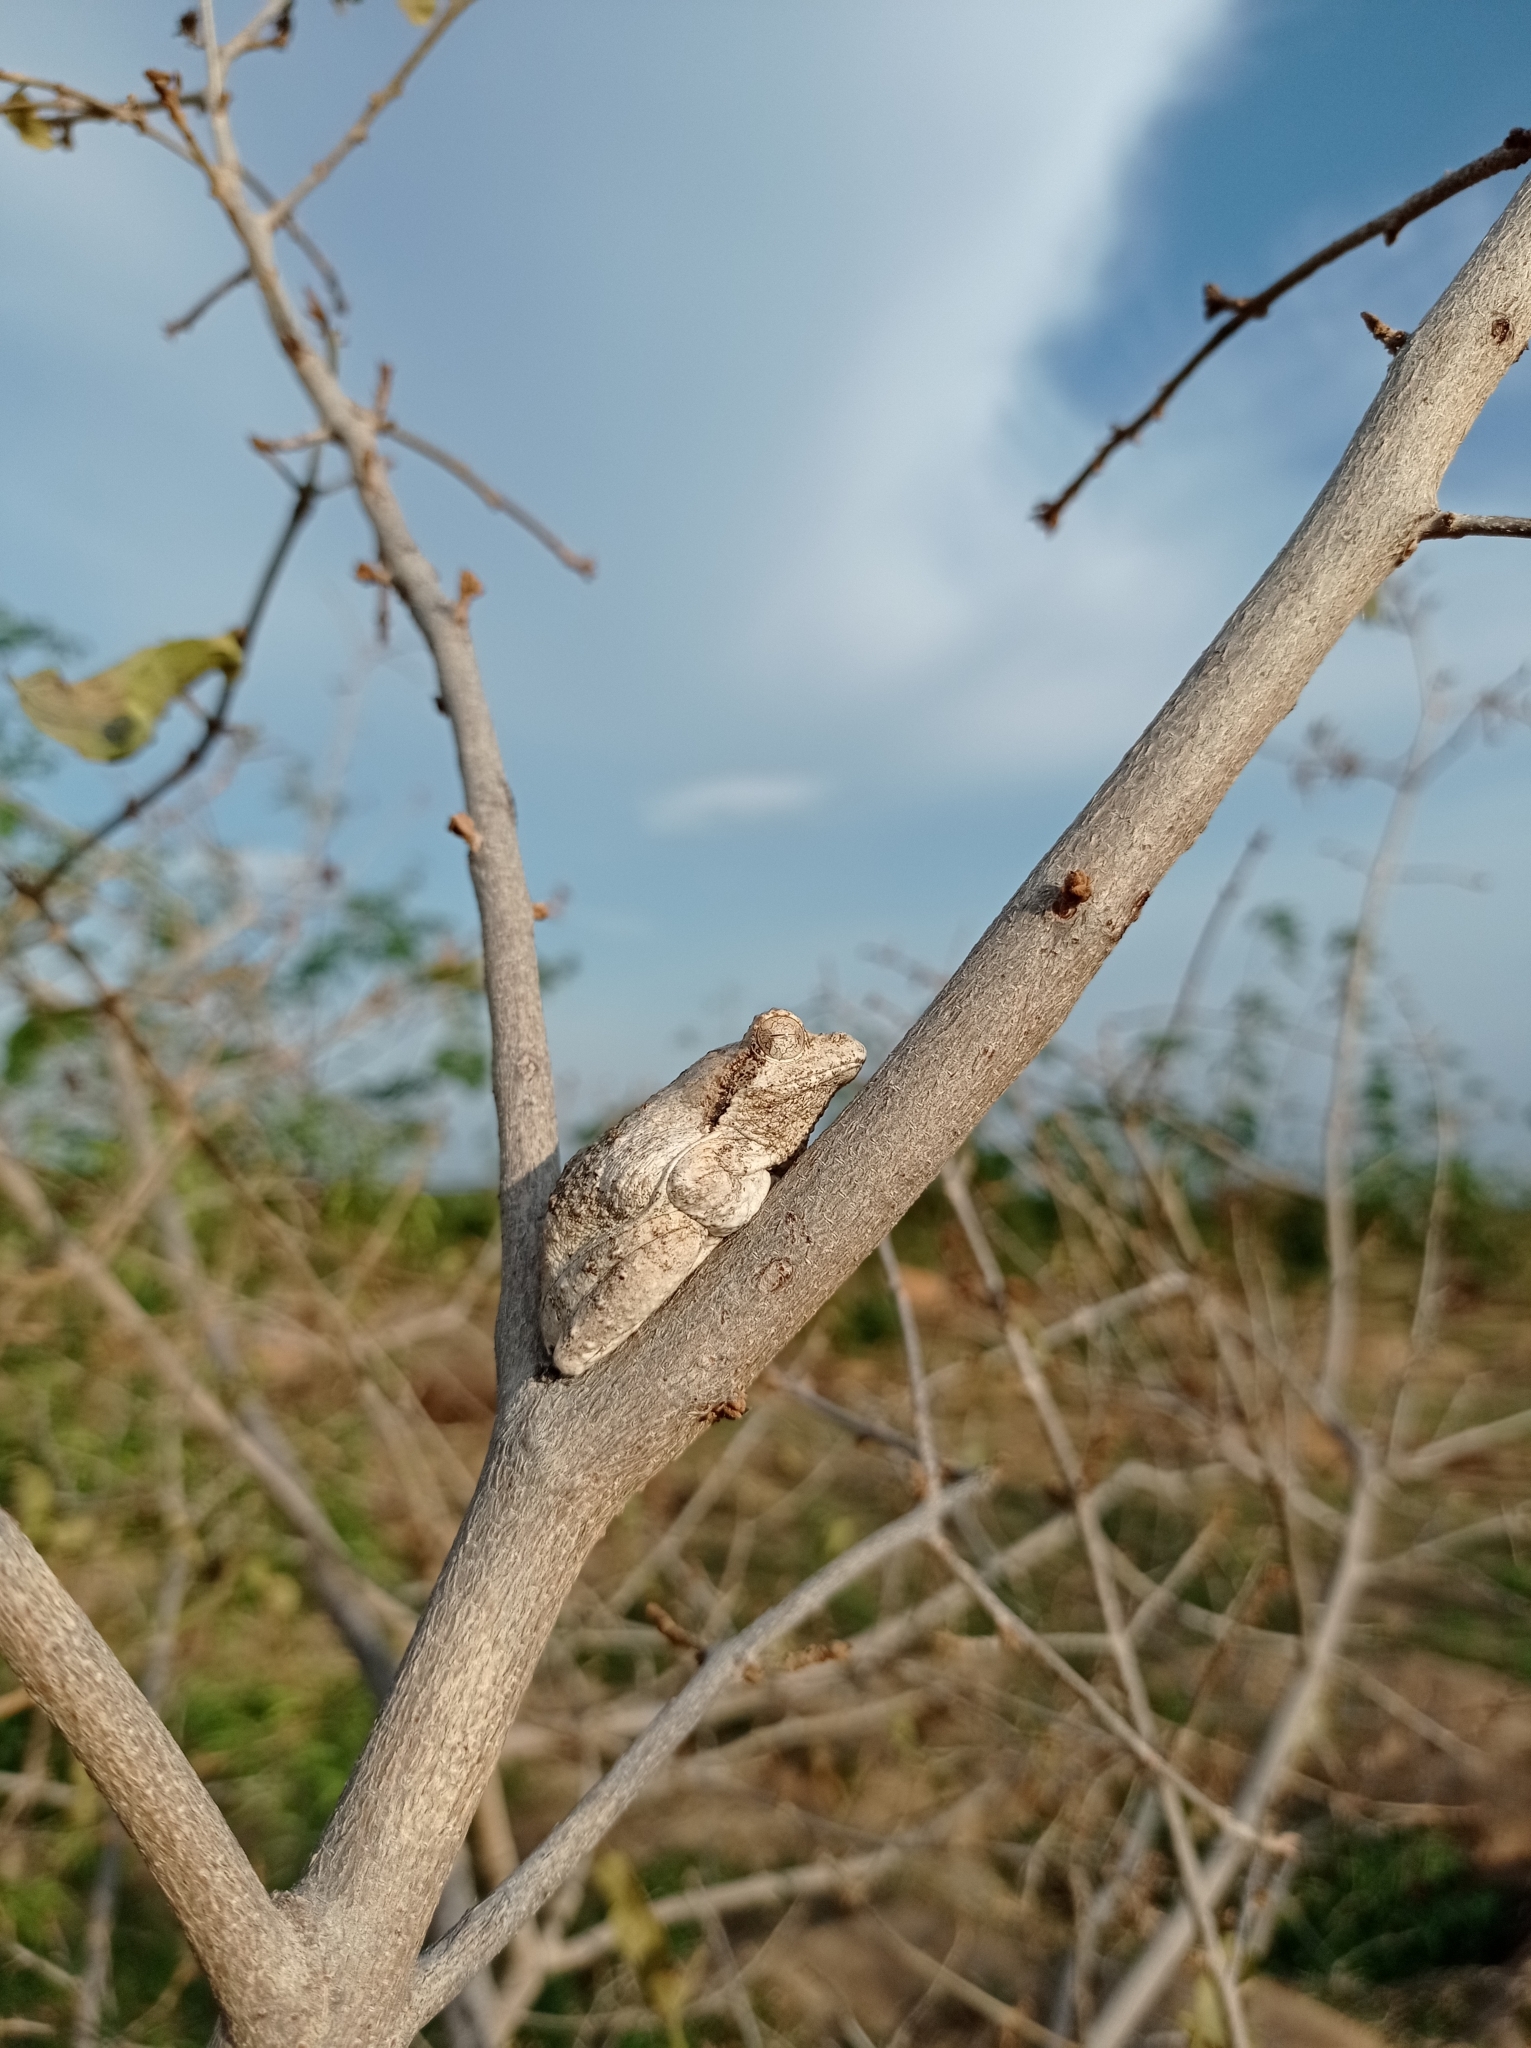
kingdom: Animalia
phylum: Chordata
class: Amphibia
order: Anura
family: Rhacophoridae
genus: Chiromantis
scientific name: Chiromantis xerampelina
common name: African gray treefrog
